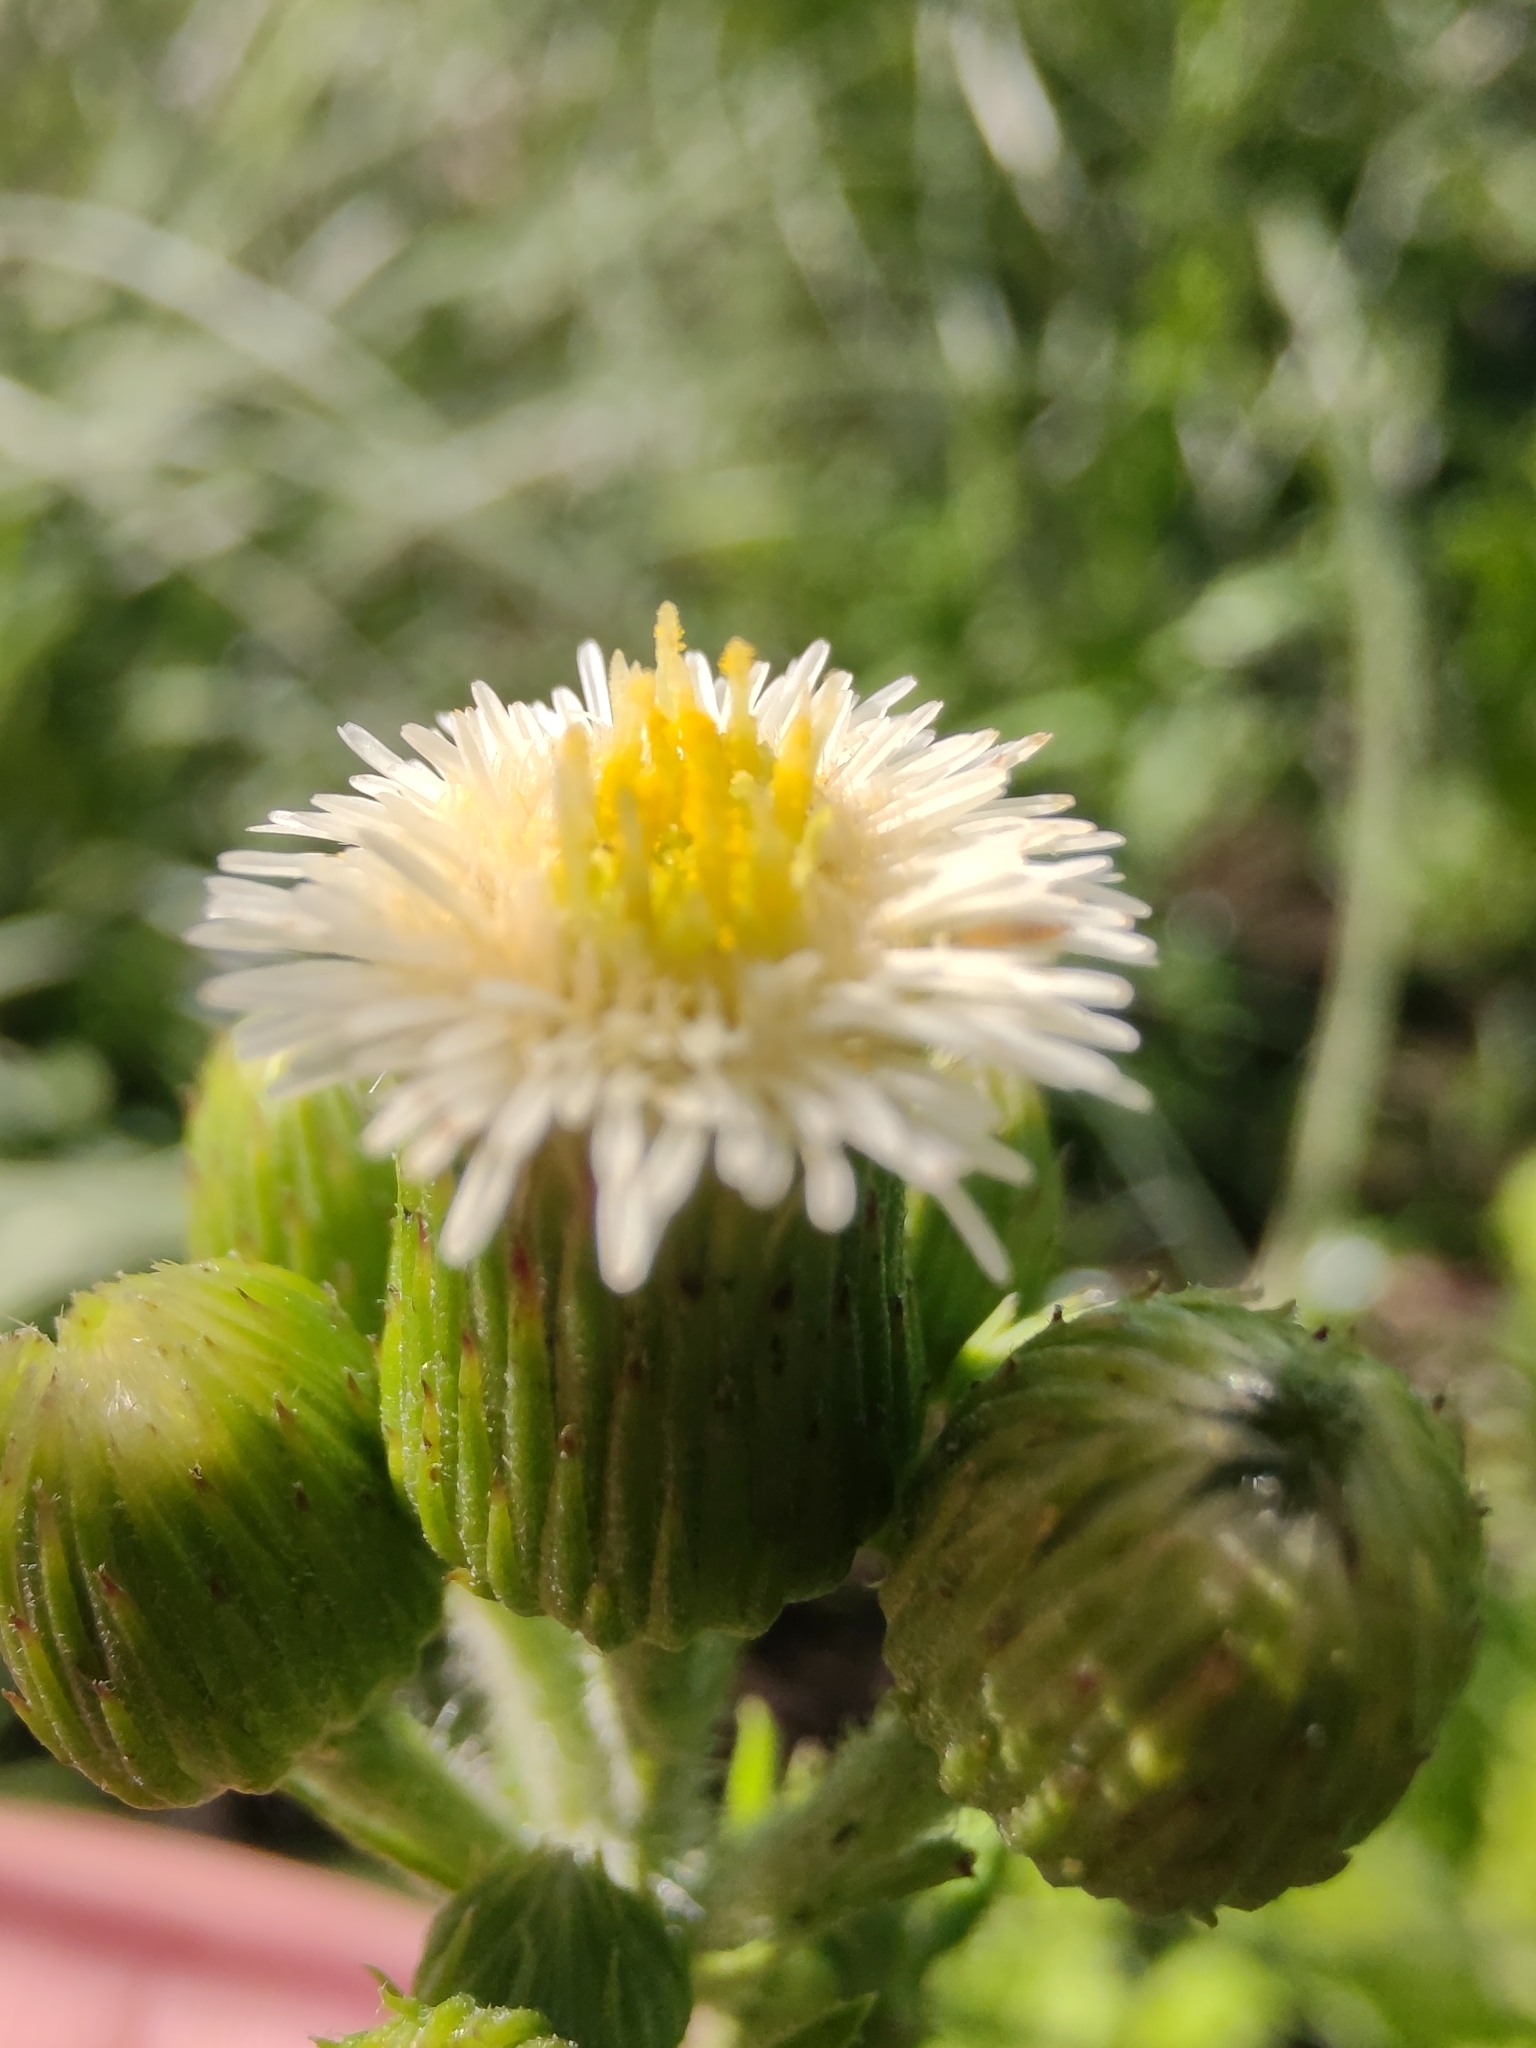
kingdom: Plantae
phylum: Tracheophyta
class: Magnoliopsida
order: Asterales
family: Asteraceae
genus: Podocoma
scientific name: Podocoma hirsuta
